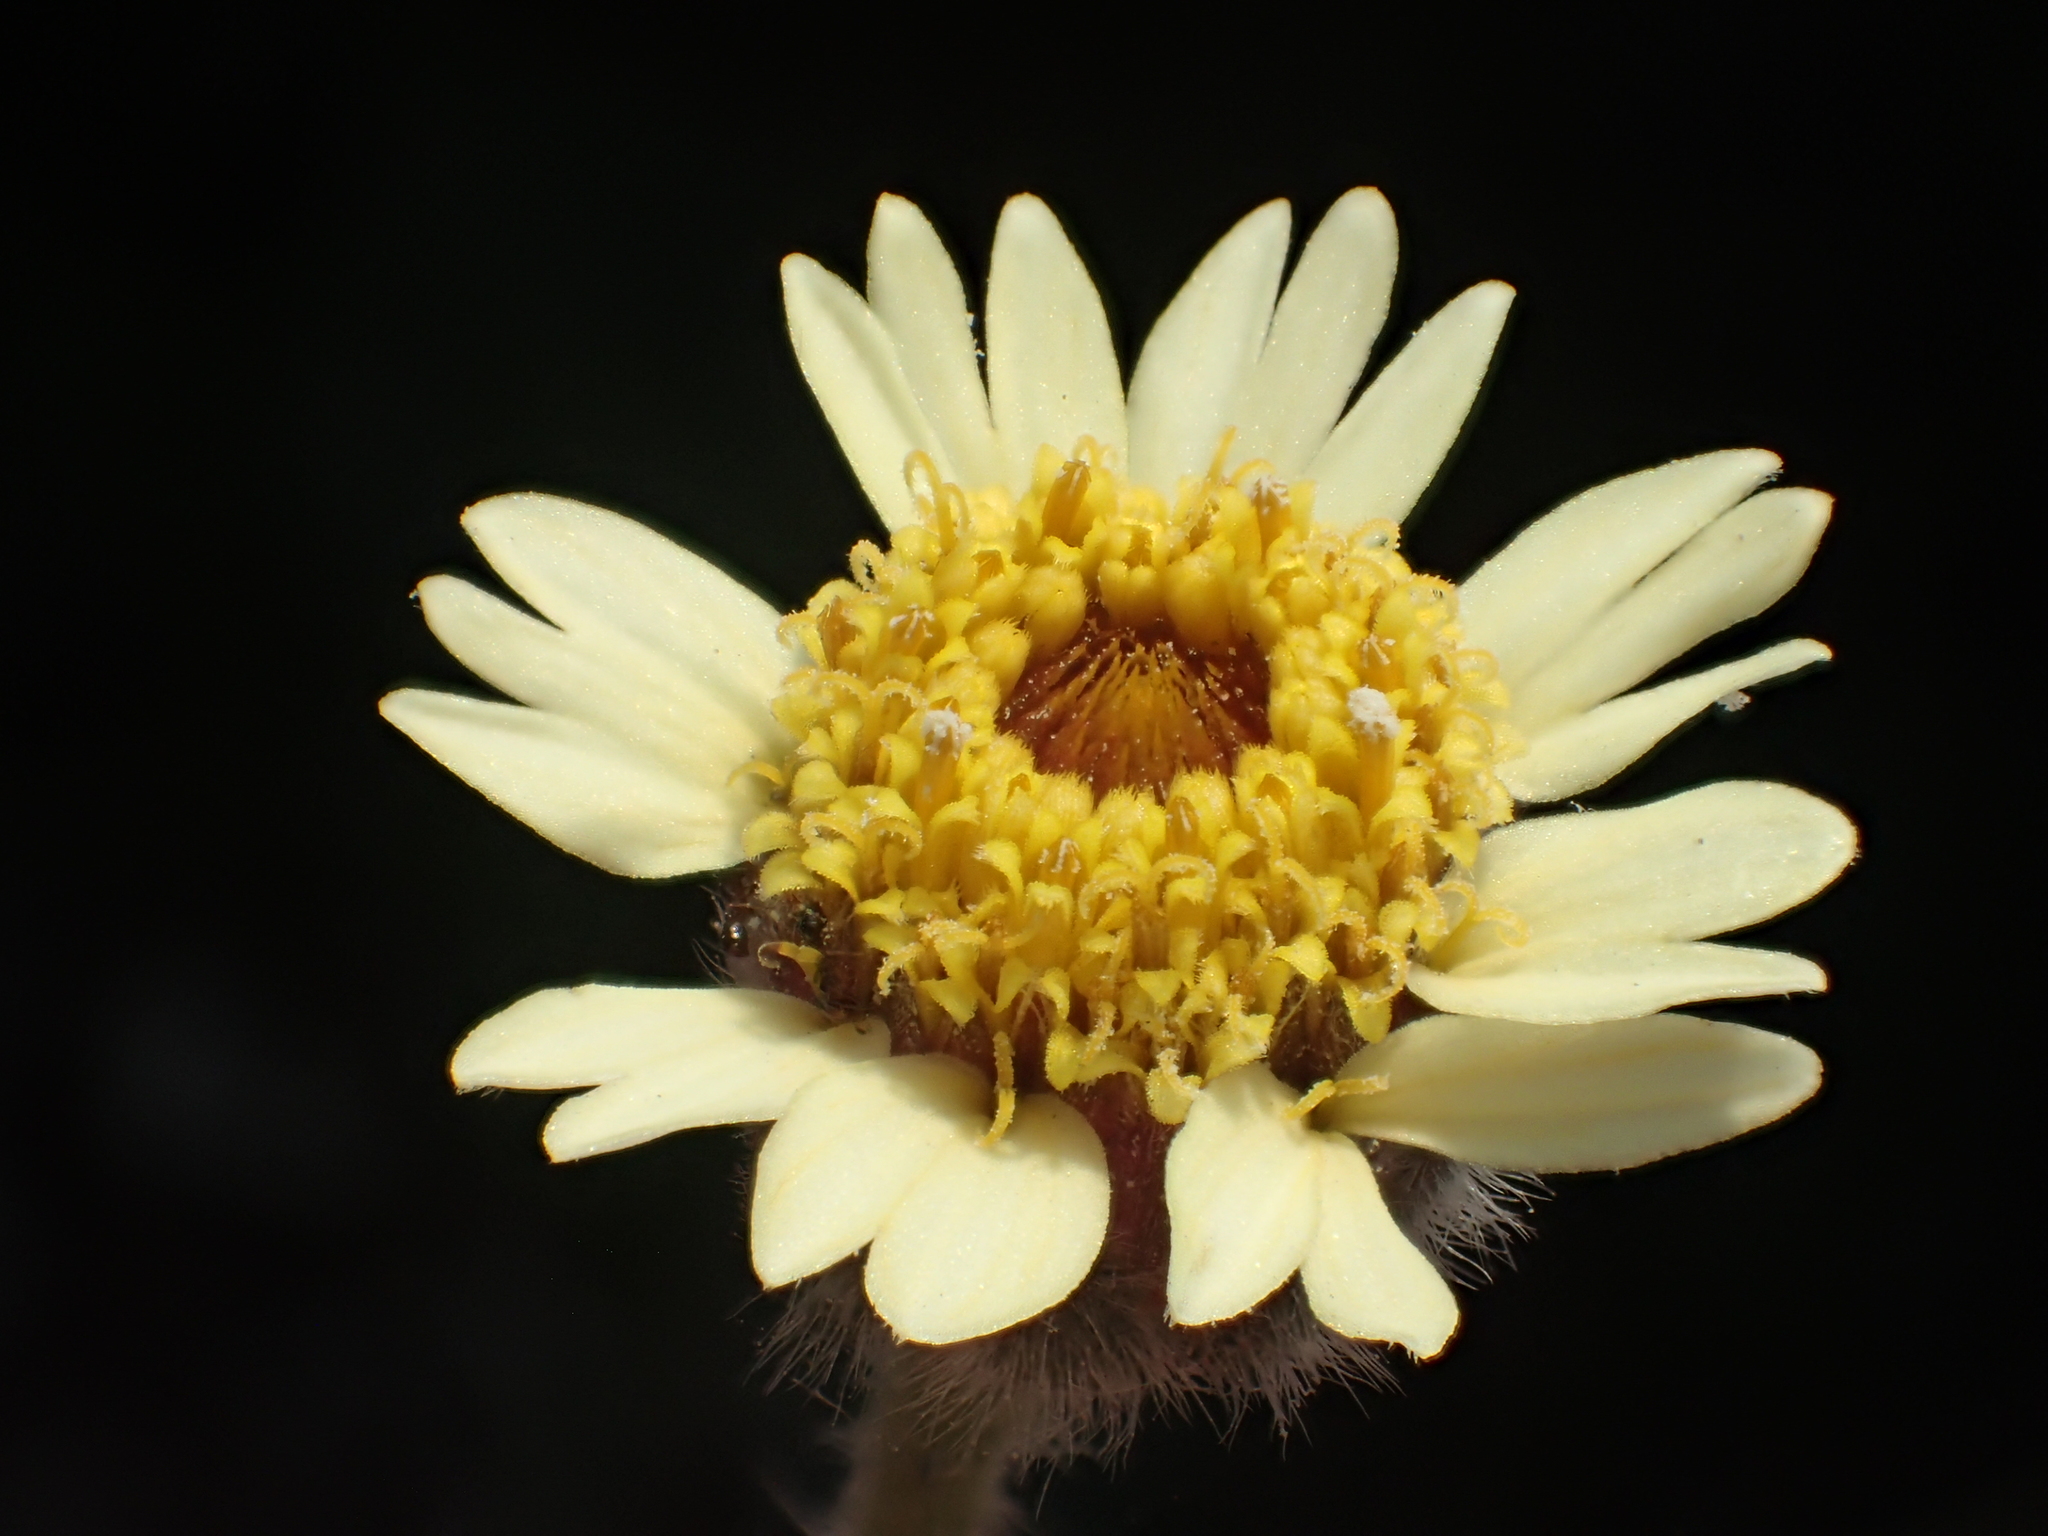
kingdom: Plantae
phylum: Tracheophyta
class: Magnoliopsida
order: Asterales
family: Asteraceae
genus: Tridax
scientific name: Tridax procumbens
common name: Coatbuttons
